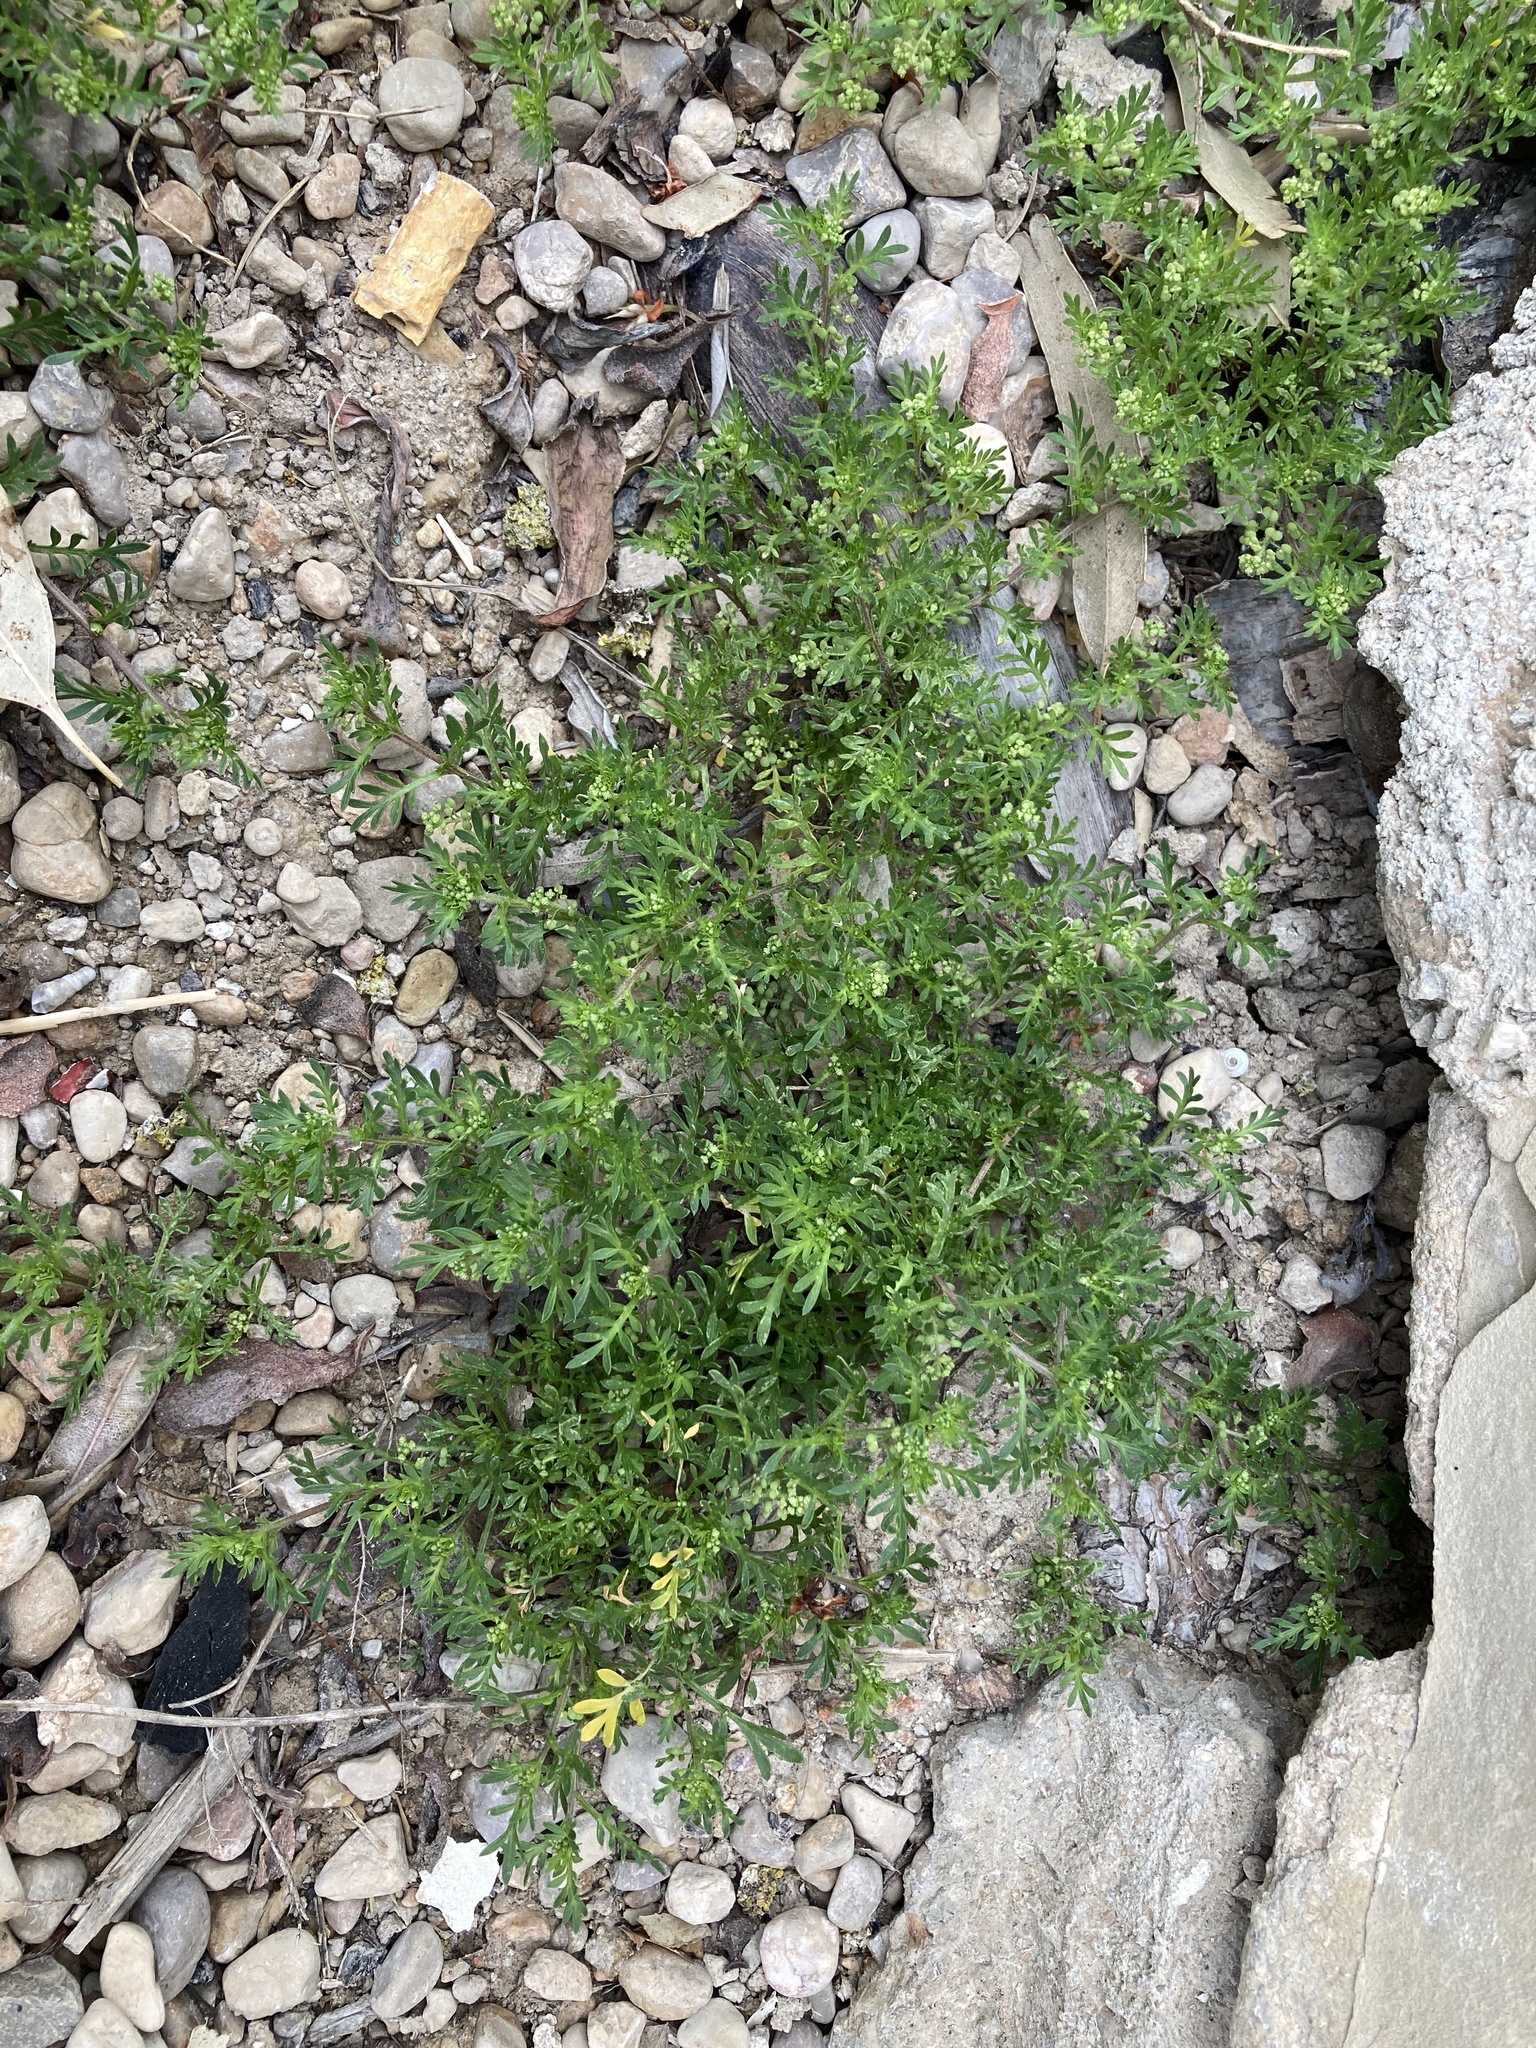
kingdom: Plantae
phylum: Tracheophyta
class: Magnoliopsida
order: Brassicales
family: Brassicaceae
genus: Lepidium
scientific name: Lepidium didymum
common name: Lesser swinecress
